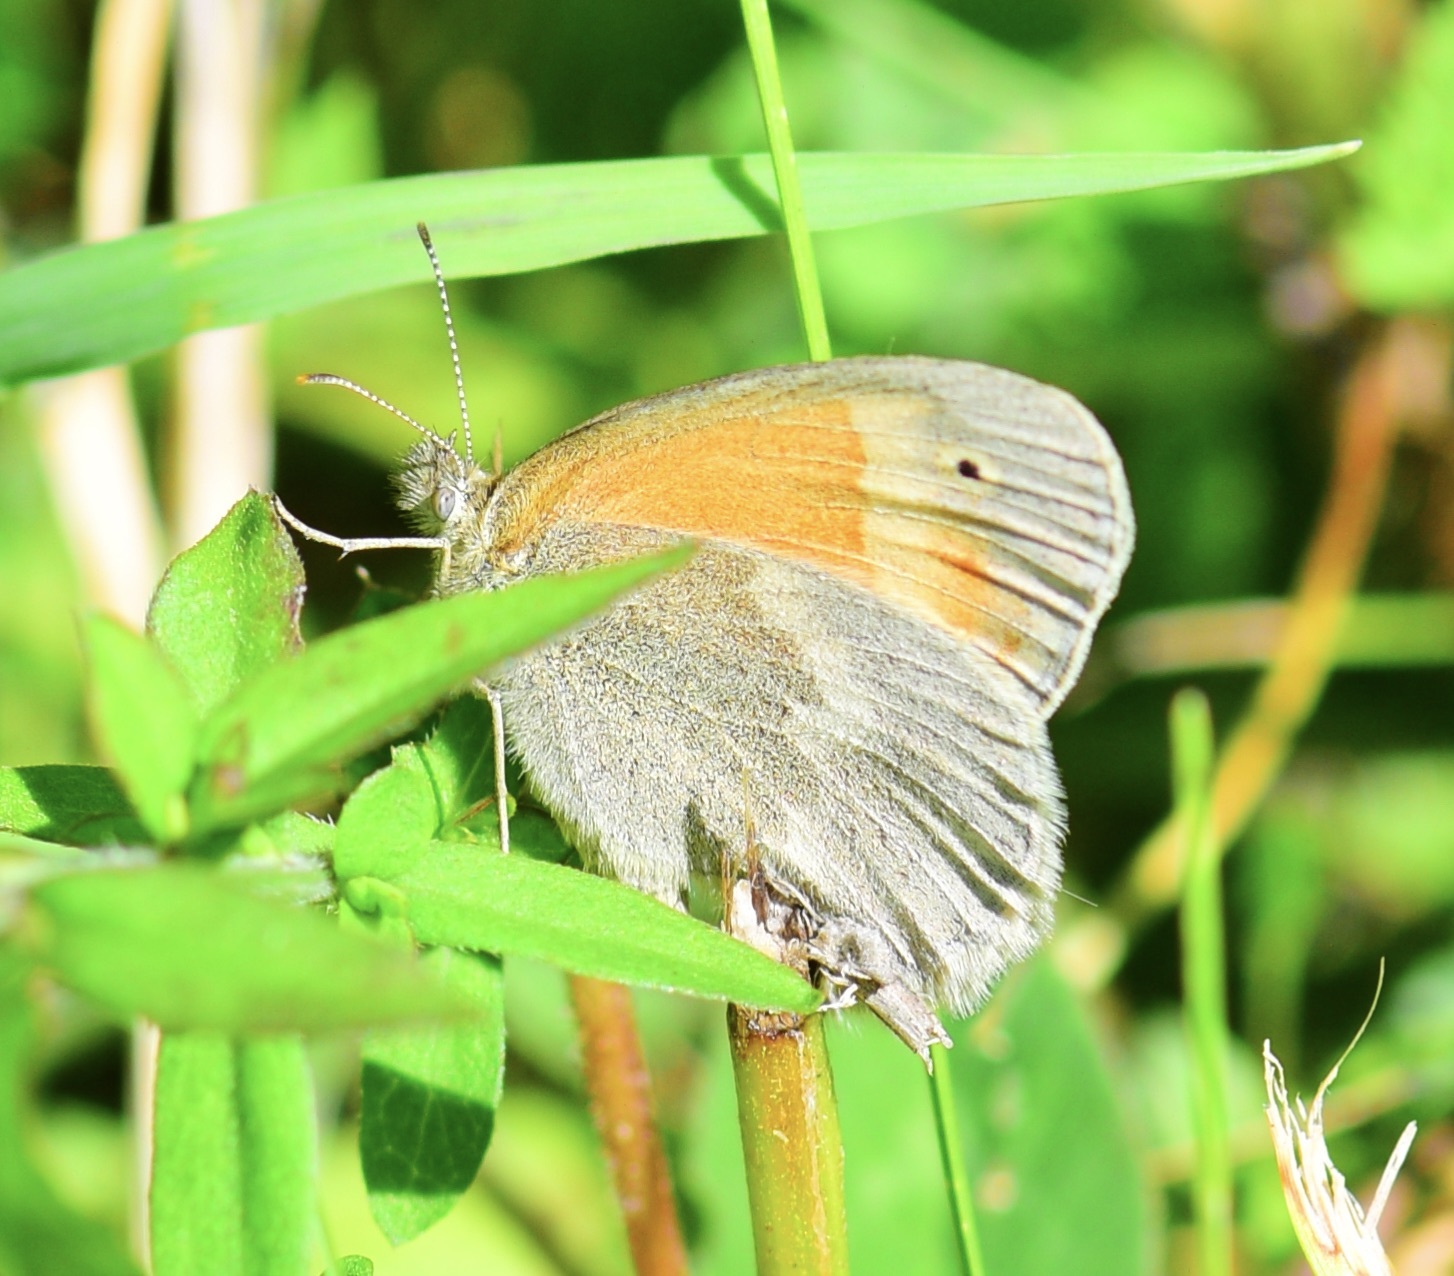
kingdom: Animalia
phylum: Arthropoda
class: Insecta
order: Lepidoptera
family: Nymphalidae
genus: Coenonympha
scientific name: Coenonympha california
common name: Common ringlet
